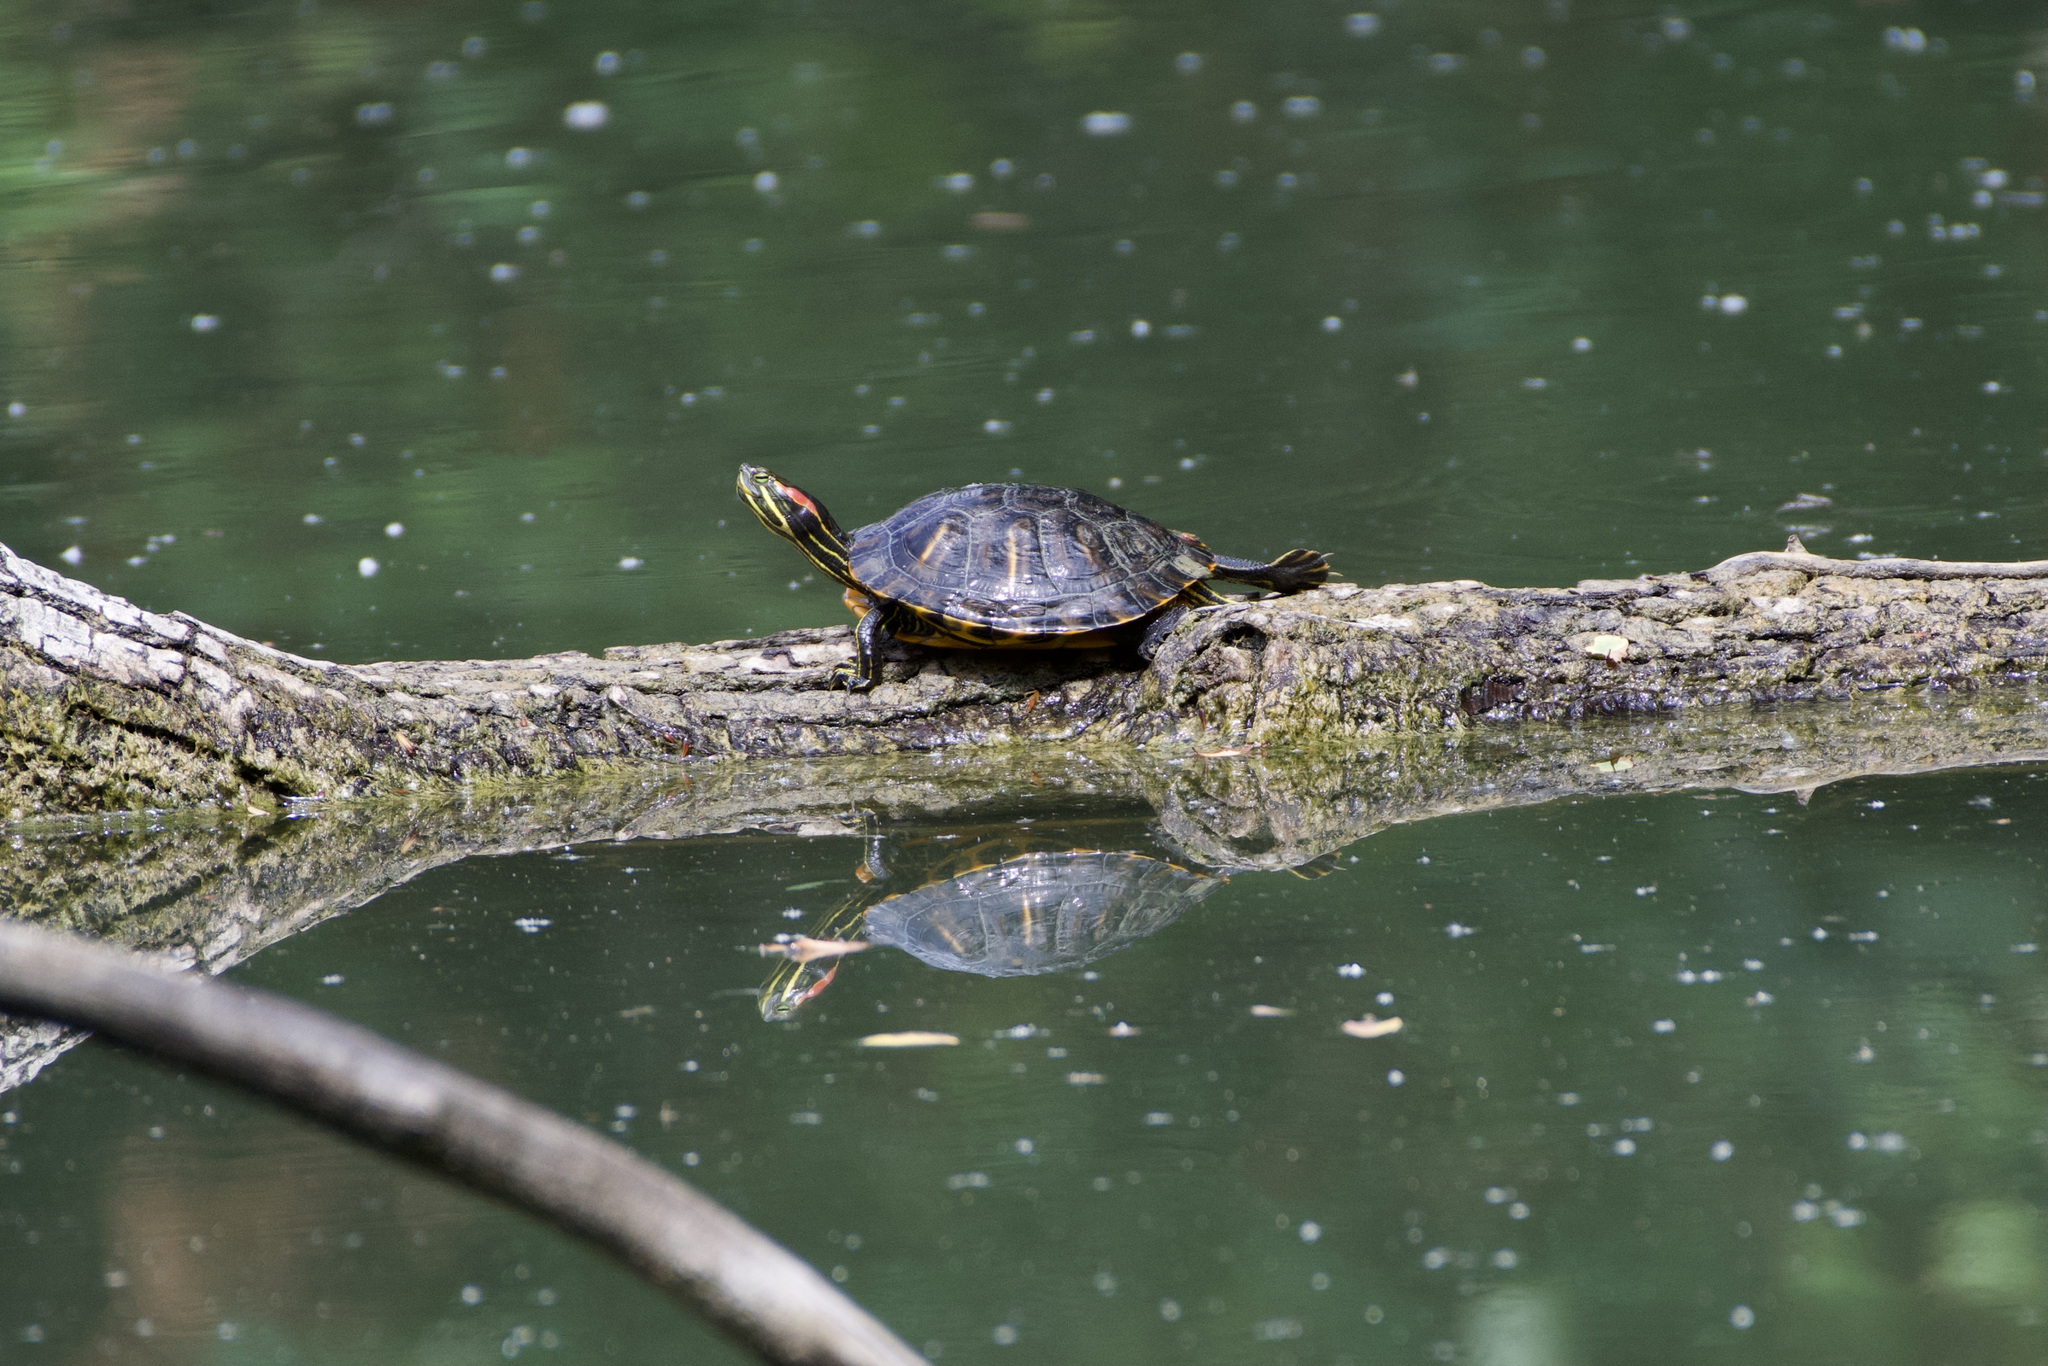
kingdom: Animalia
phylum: Chordata
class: Testudines
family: Emydidae
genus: Trachemys
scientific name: Trachemys scripta
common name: Slider
